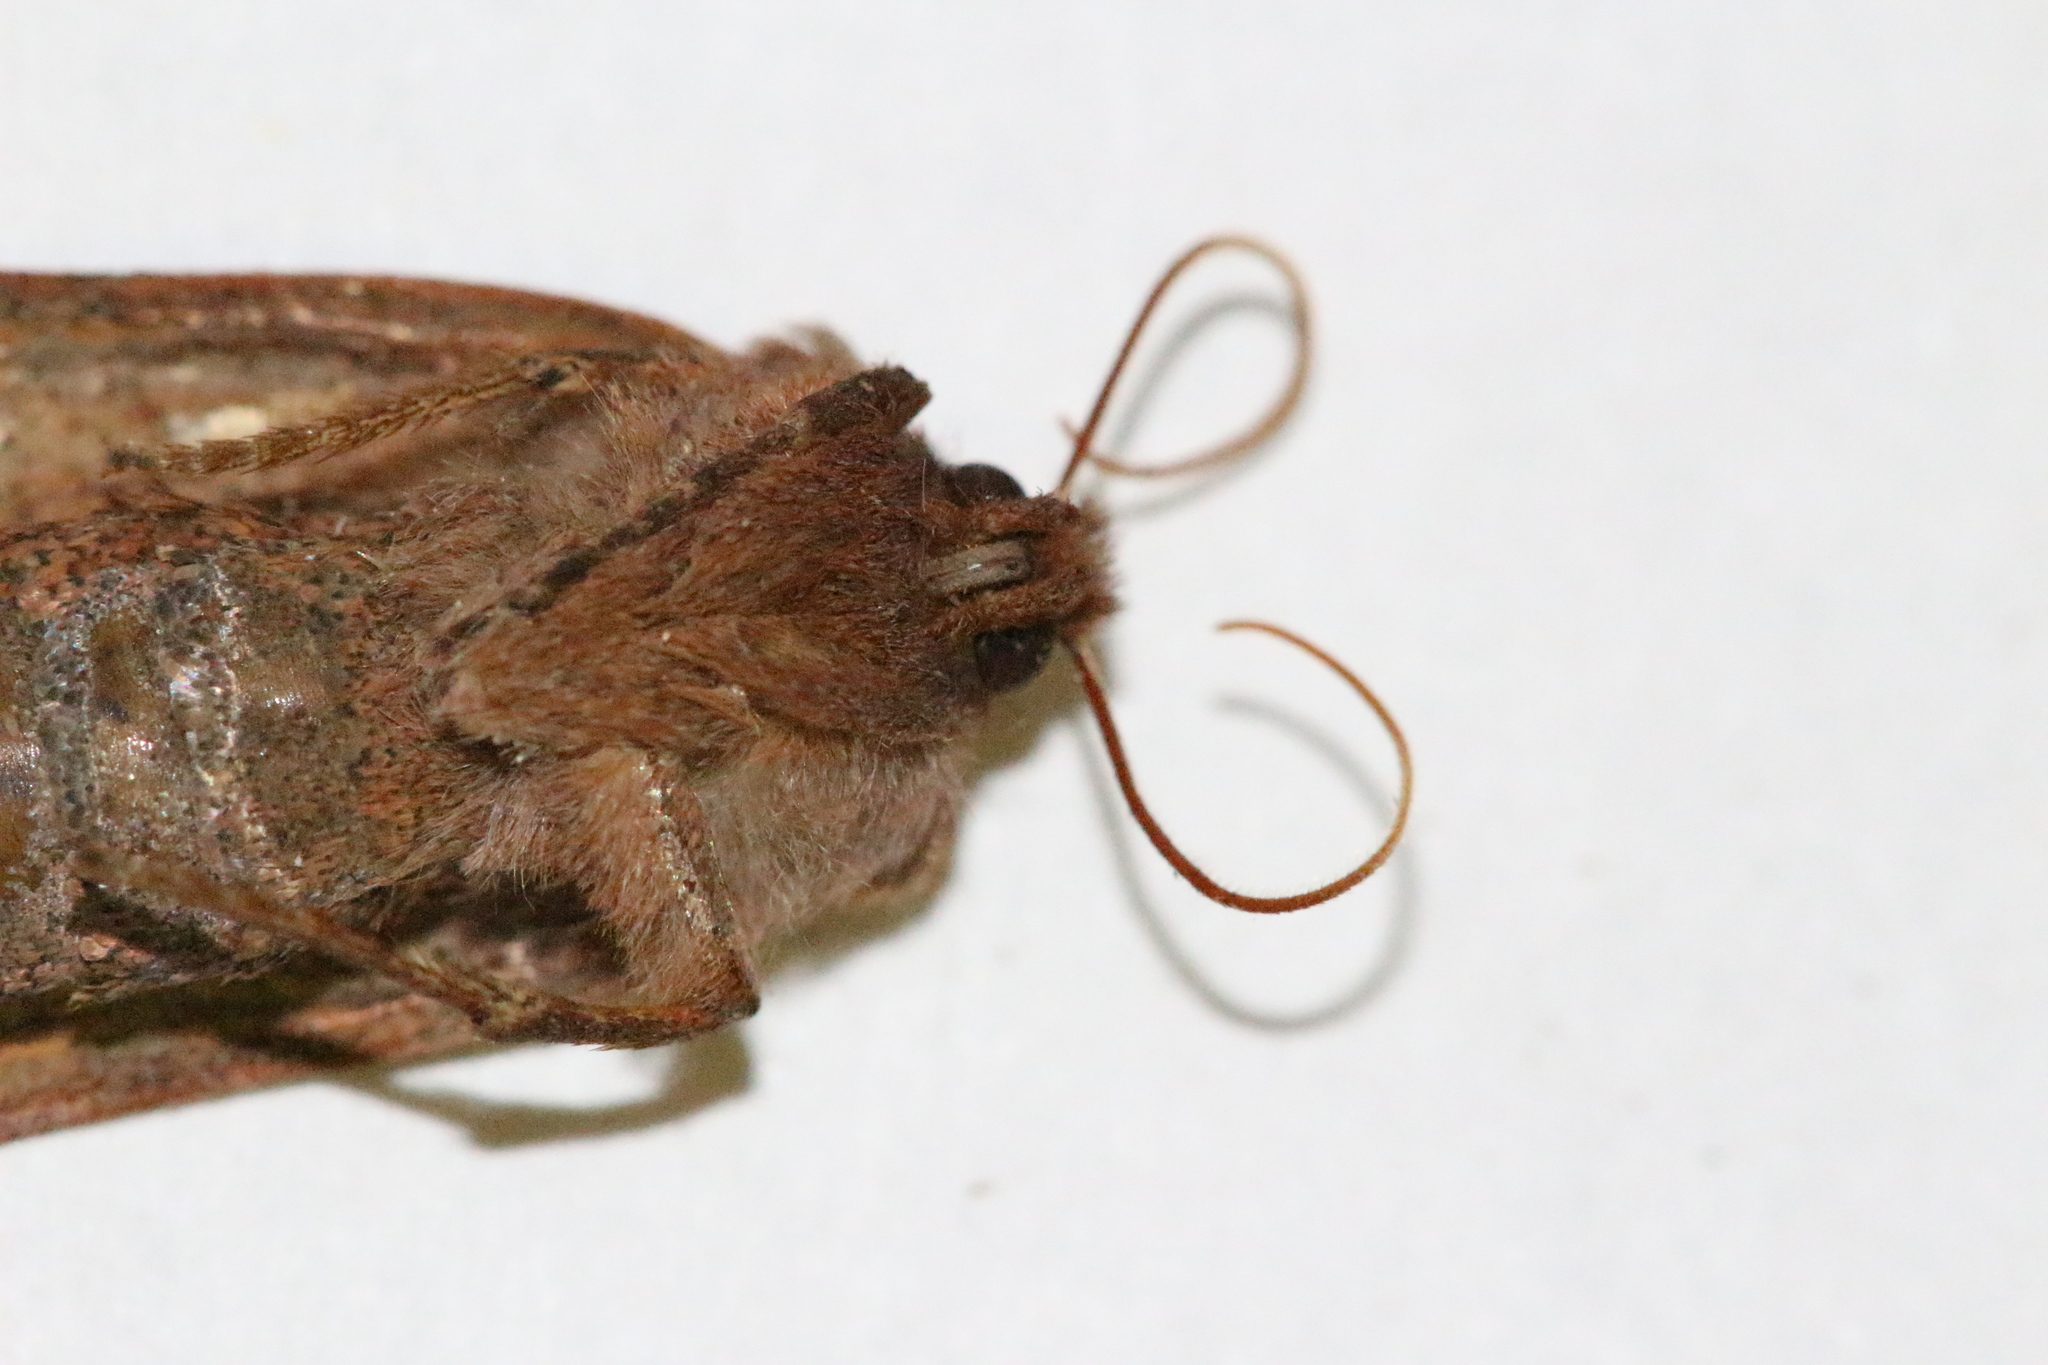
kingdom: Animalia
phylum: Arthropoda
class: Insecta
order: Lepidoptera
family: Noctuidae
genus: Conistra
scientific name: Conistra vaccinii
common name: Chestnut
